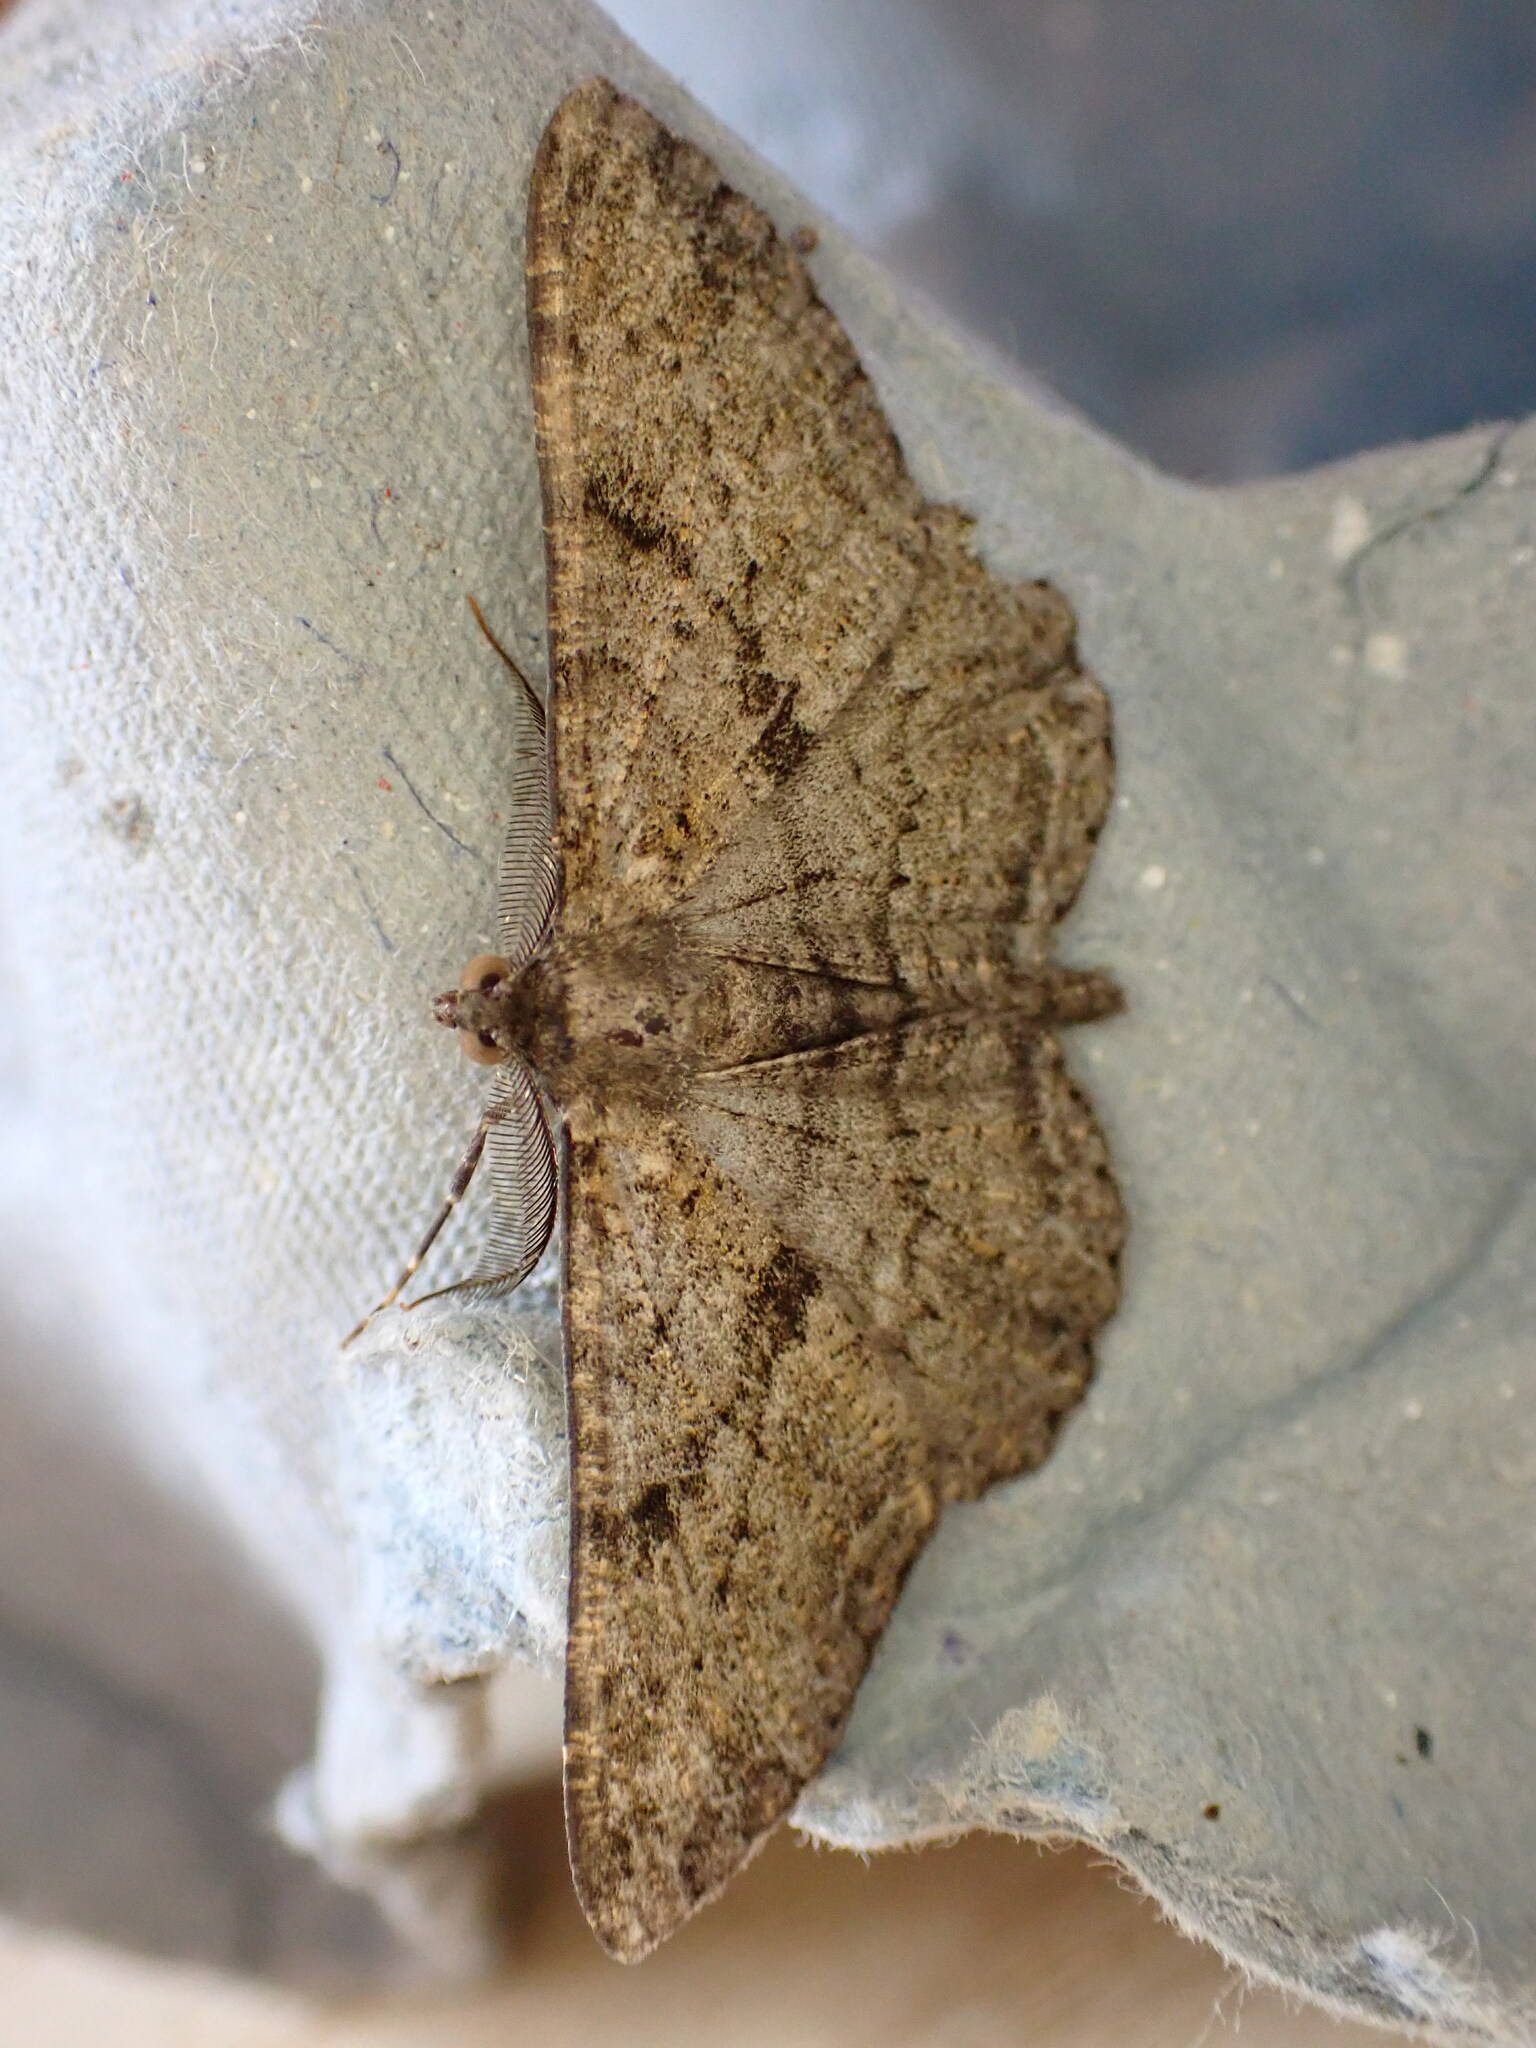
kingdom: Animalia
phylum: Arthropoda
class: Insecta
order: Lepidoptera
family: Geometridae
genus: Peribatodes
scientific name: Peribatodes rhomboidaria
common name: Willow beauty
